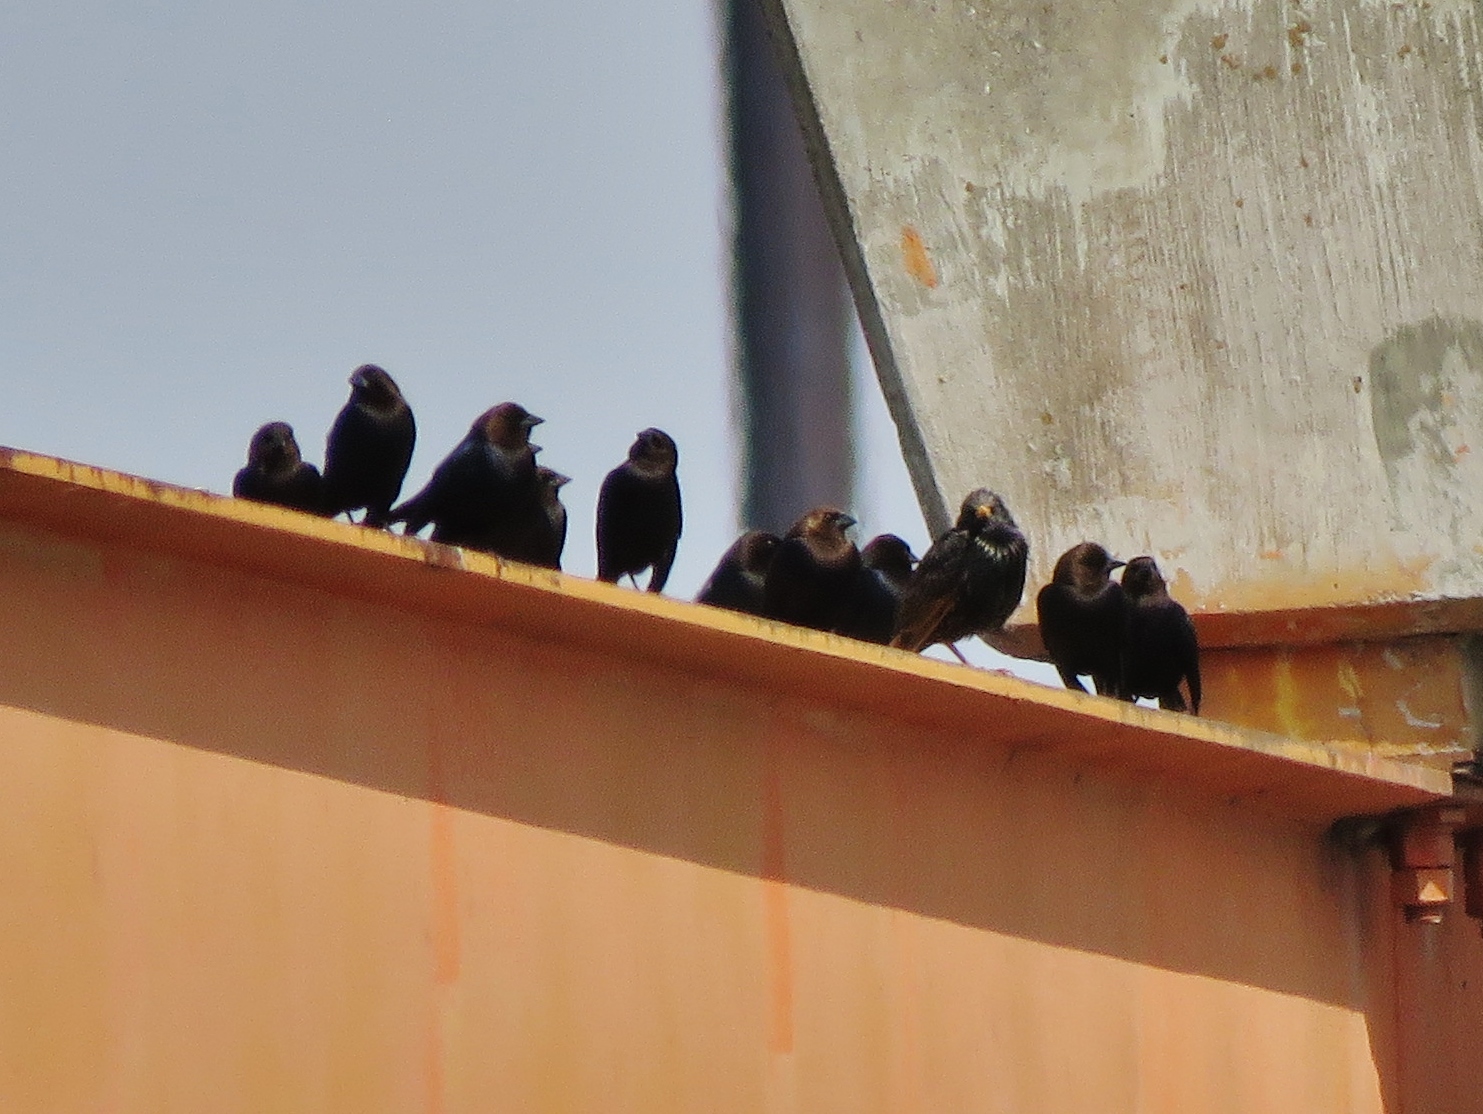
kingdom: Animalia
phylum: Chordata
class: Aves
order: Passeriformes
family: Icteridae
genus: Molothrus
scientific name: Molothrus ater
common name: Brown-headed cowbird
